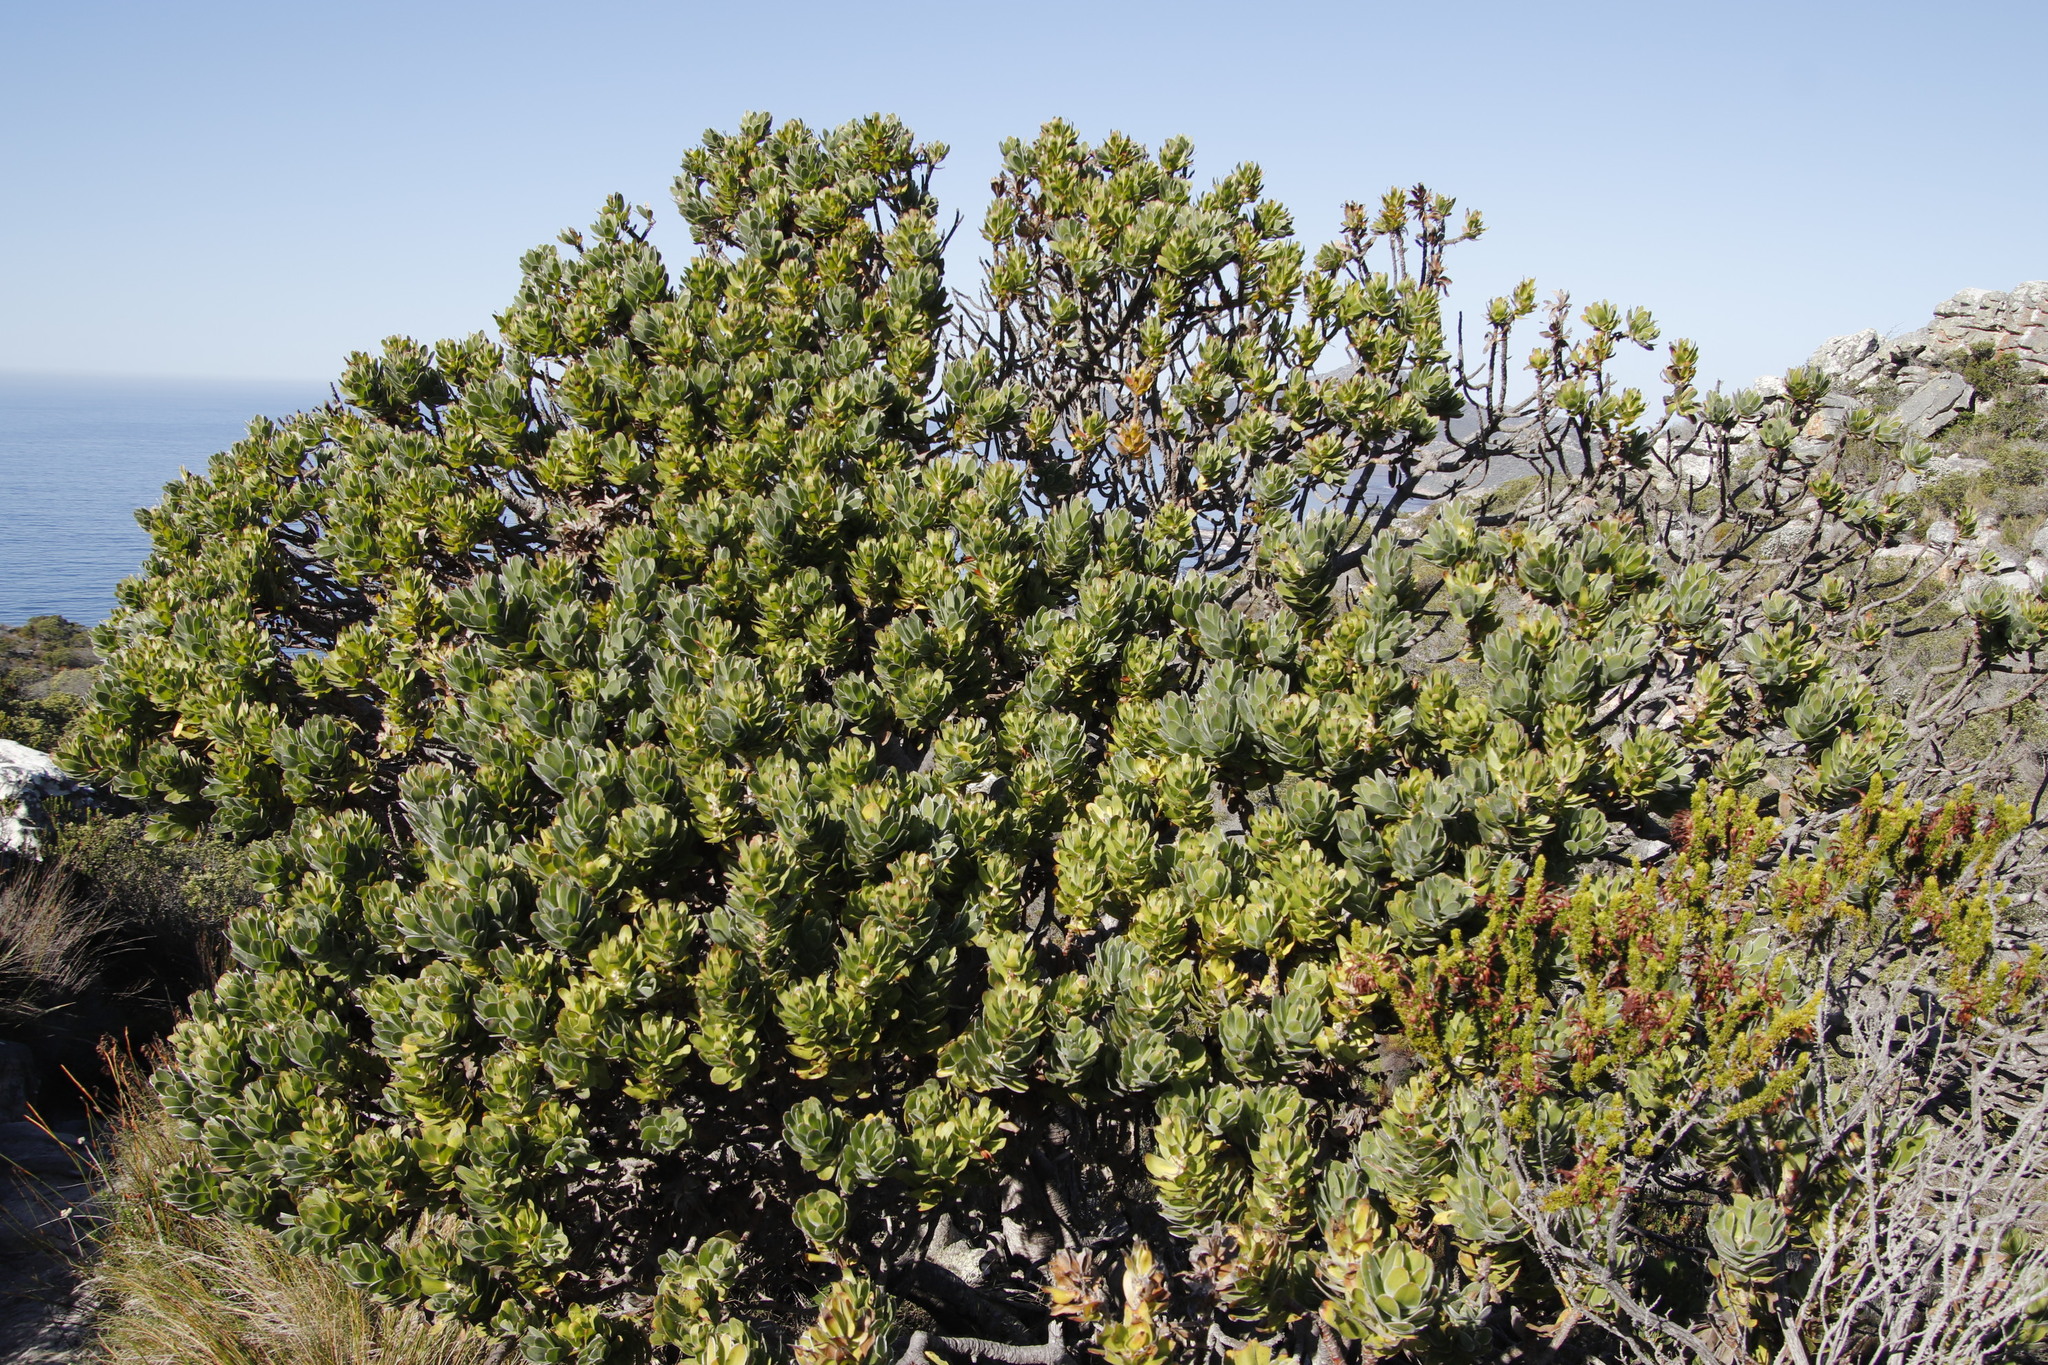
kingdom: Plantae
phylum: Tracheophyta
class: Magnoliopsida
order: Proteales
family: Proteaceae
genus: Mimetes
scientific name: Mimetes fimbriifolius
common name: Fringed bottlebrush
